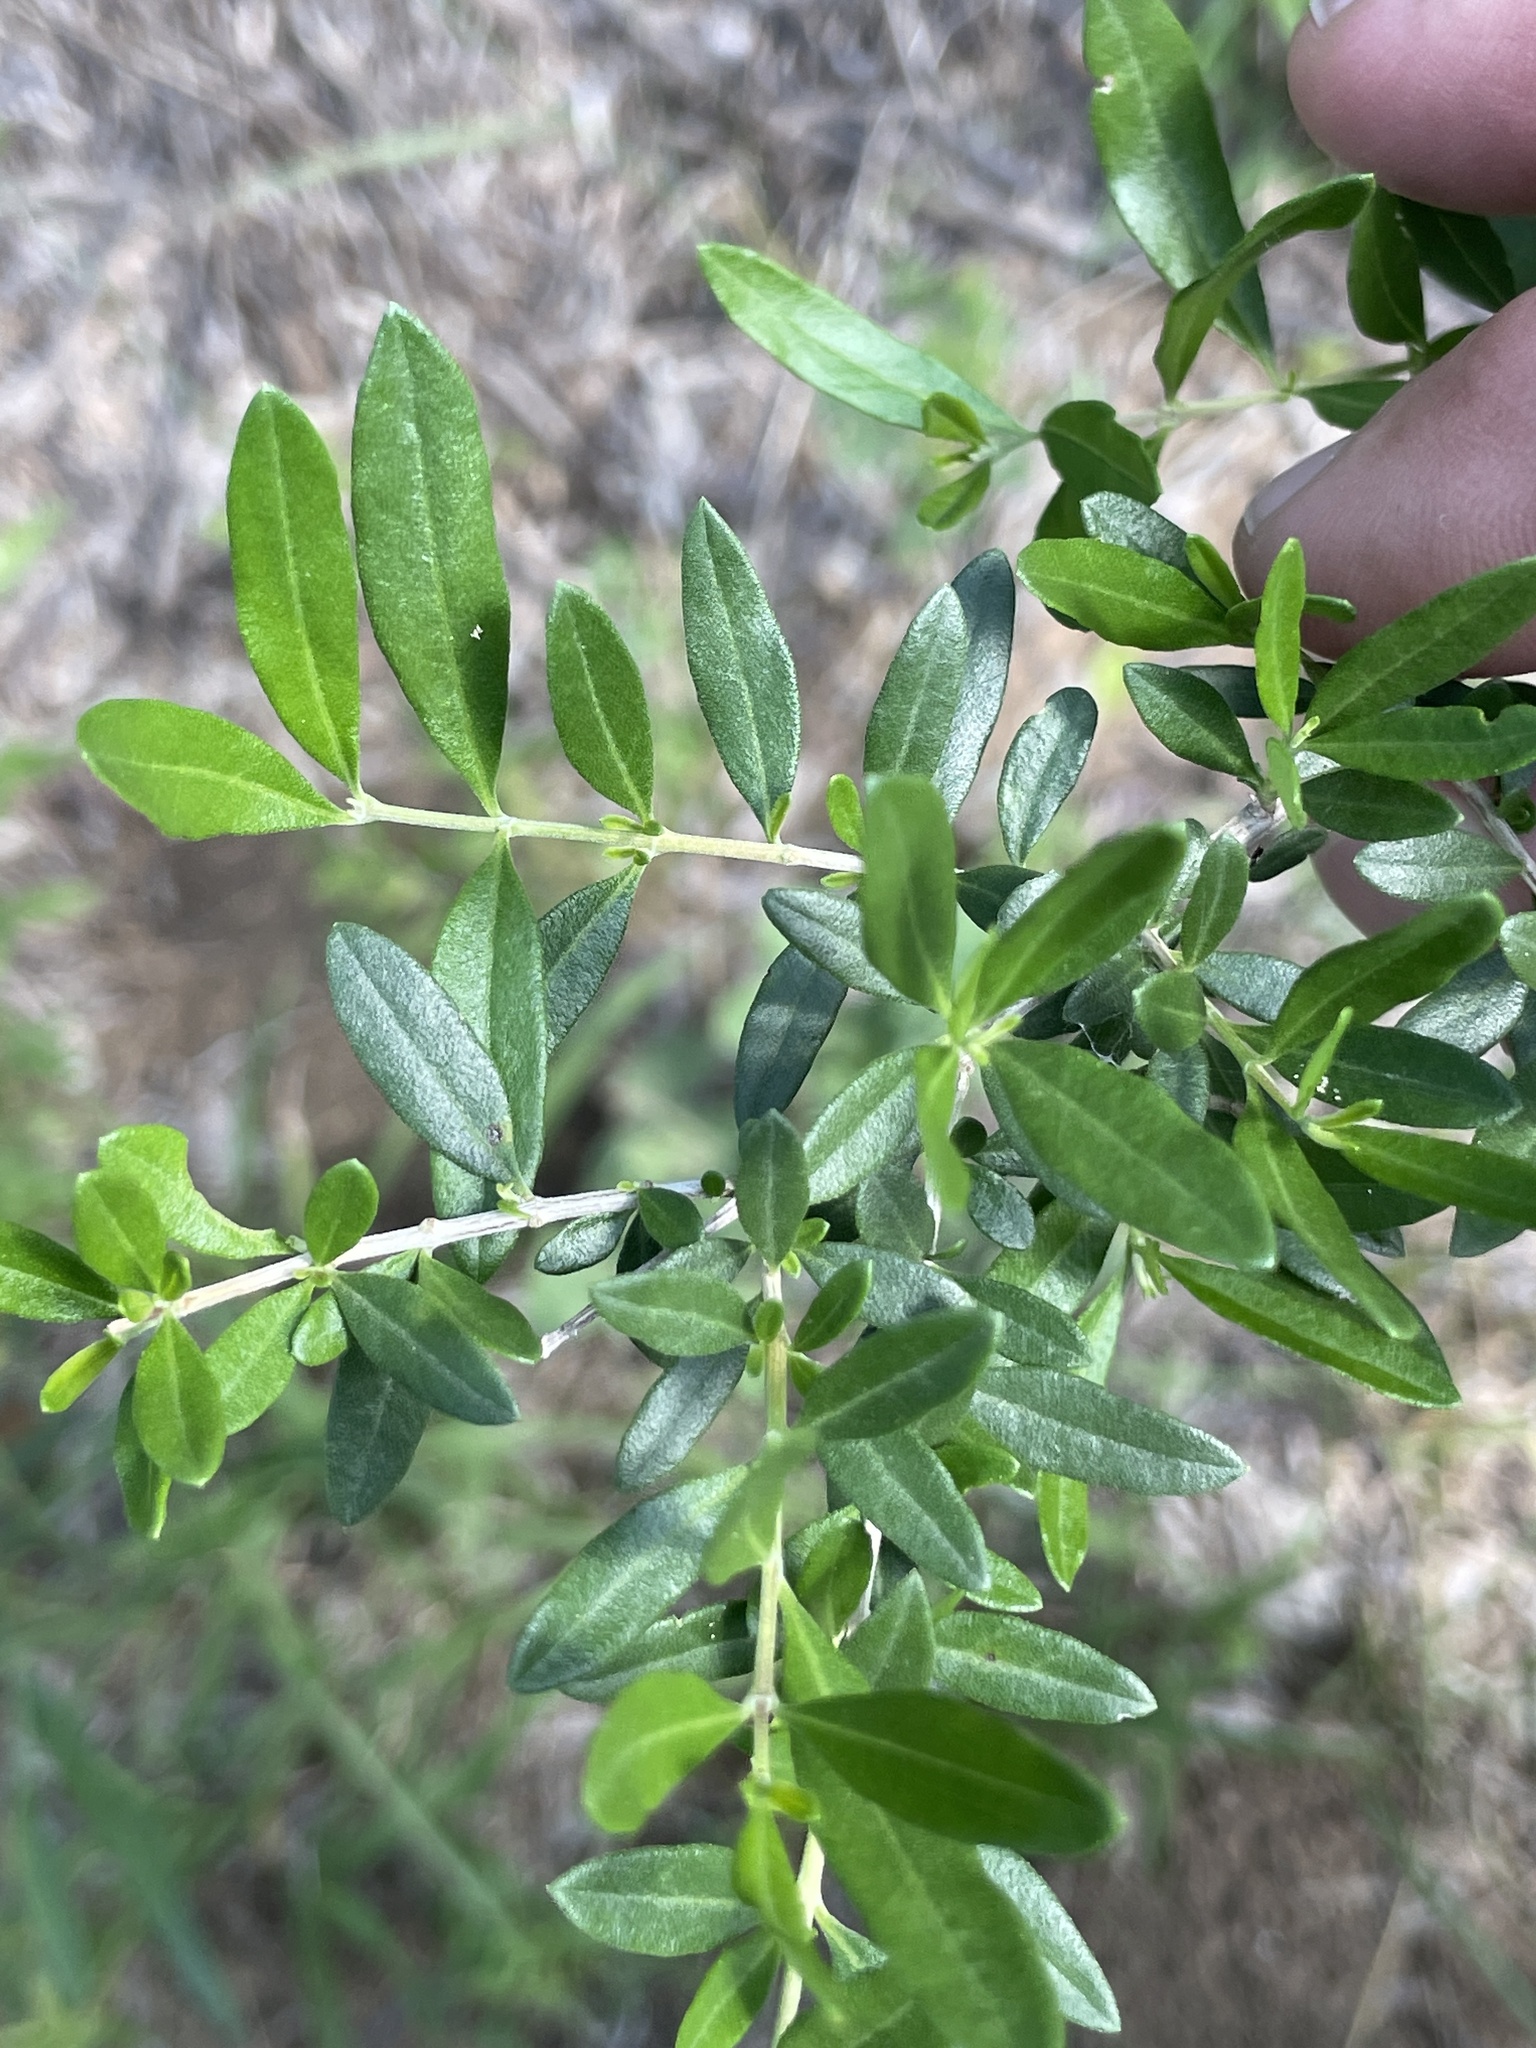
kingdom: Plantae
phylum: Tracheophyta
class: Magnoliopsida
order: Lamiales
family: Verbenaceae
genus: Aloysia
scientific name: Aloysia gratissima
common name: Common bee-brush
